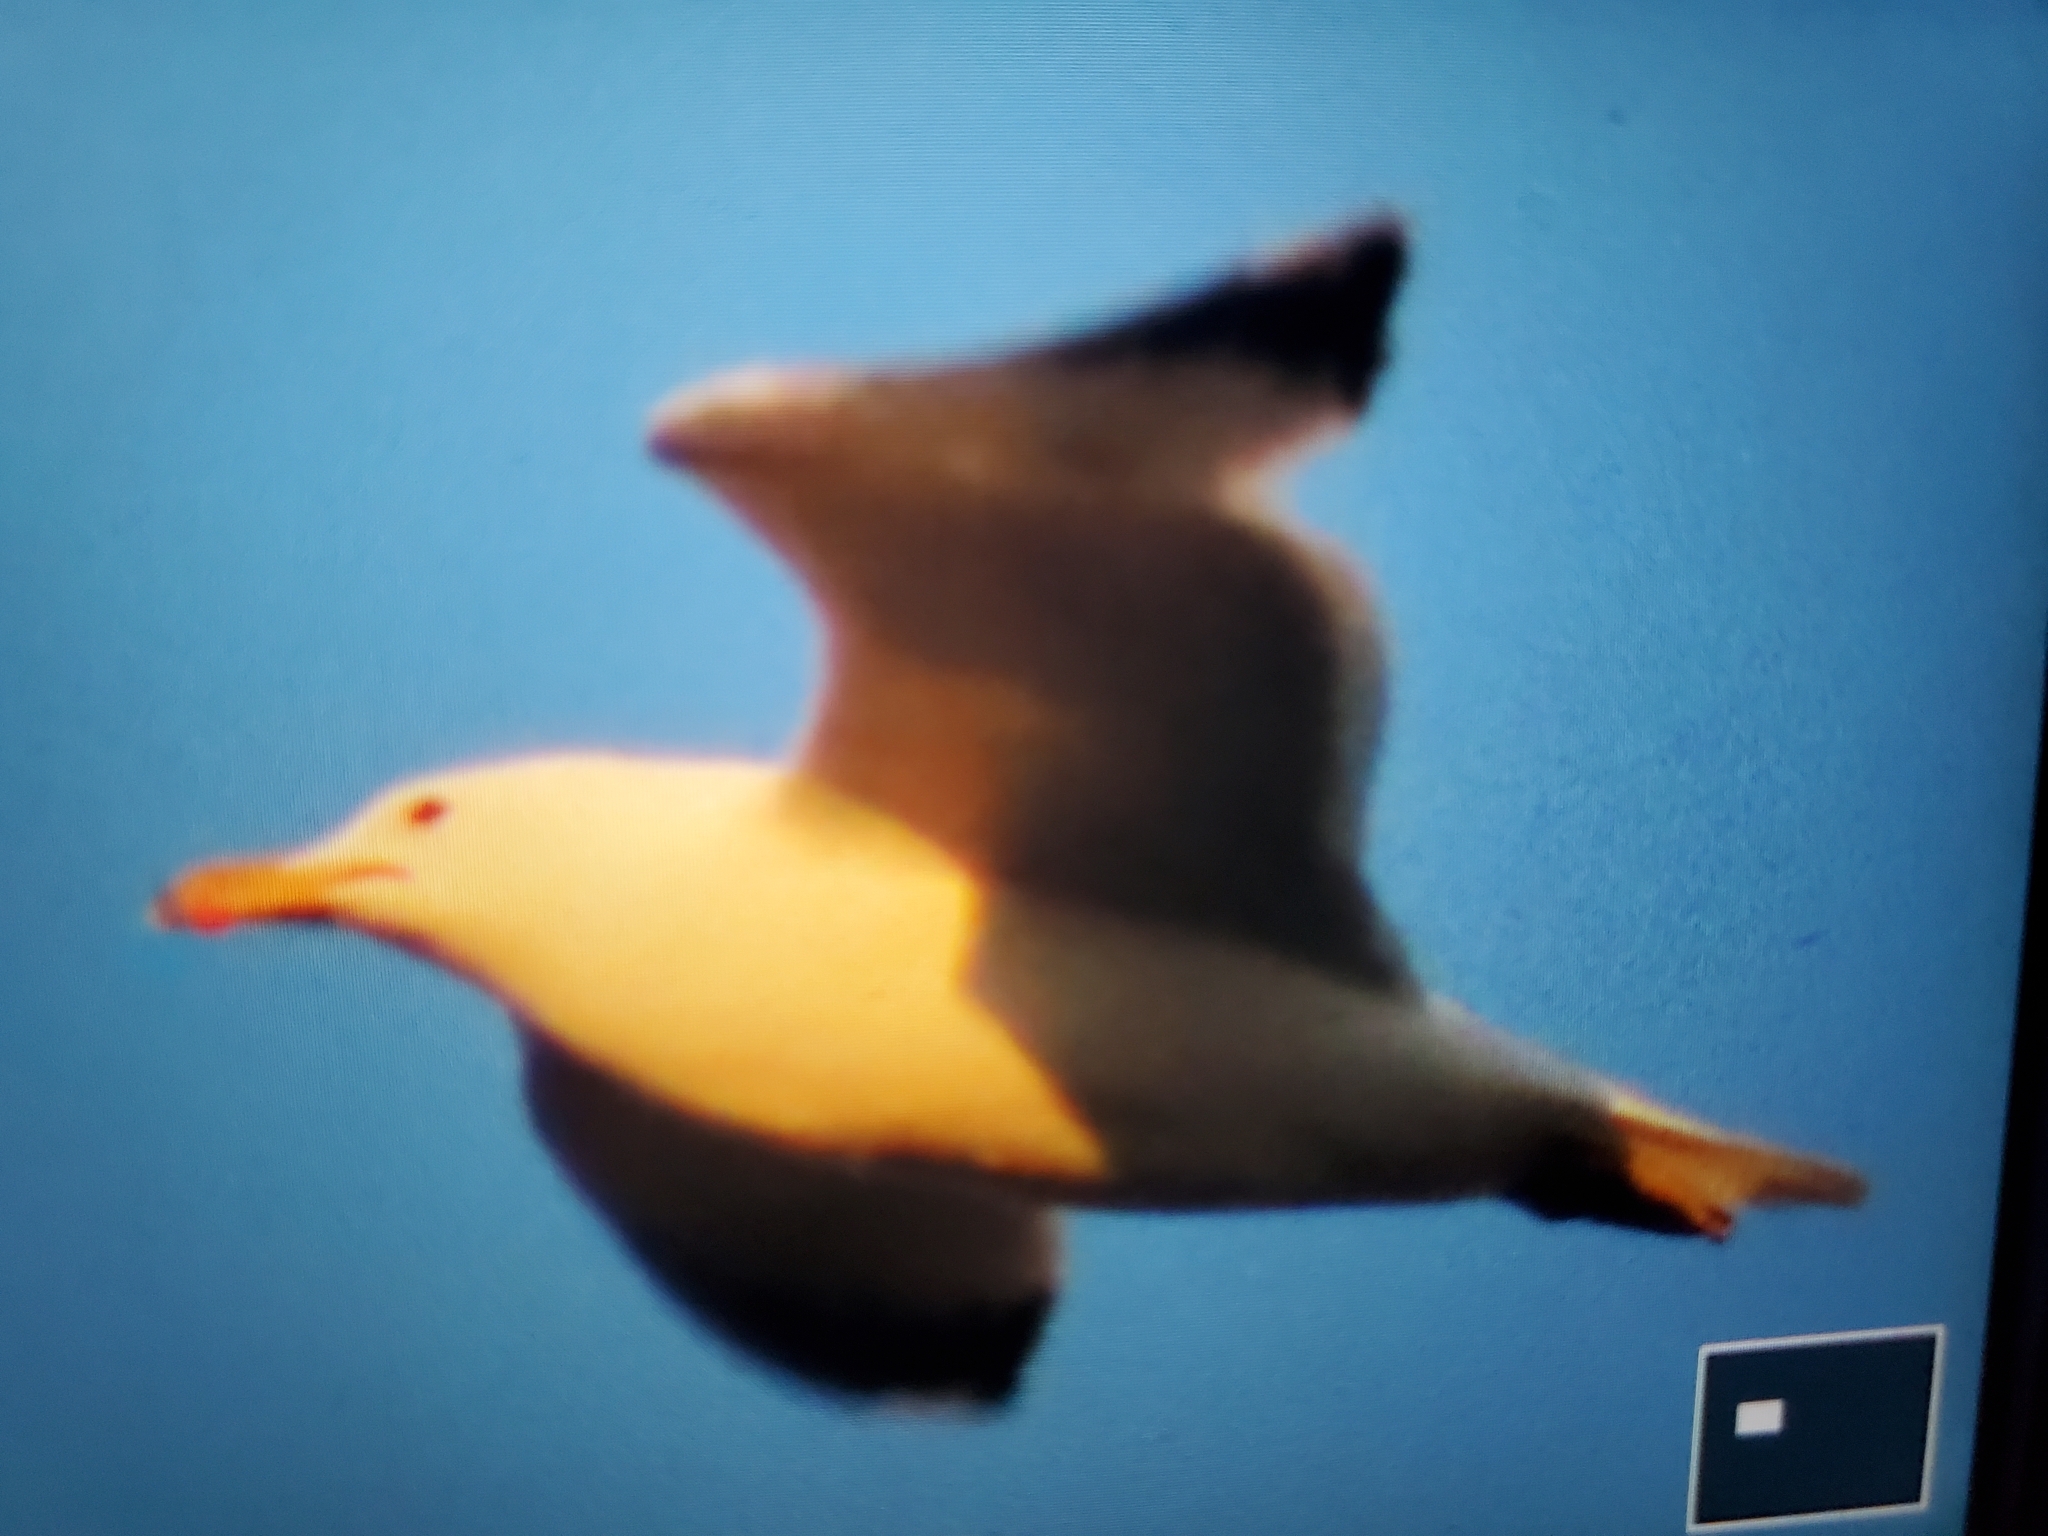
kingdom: Animalia
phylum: Chordata
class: Aves
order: Charadriiformes
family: Laridae
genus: Larus
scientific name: Larus californicus
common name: California gull
